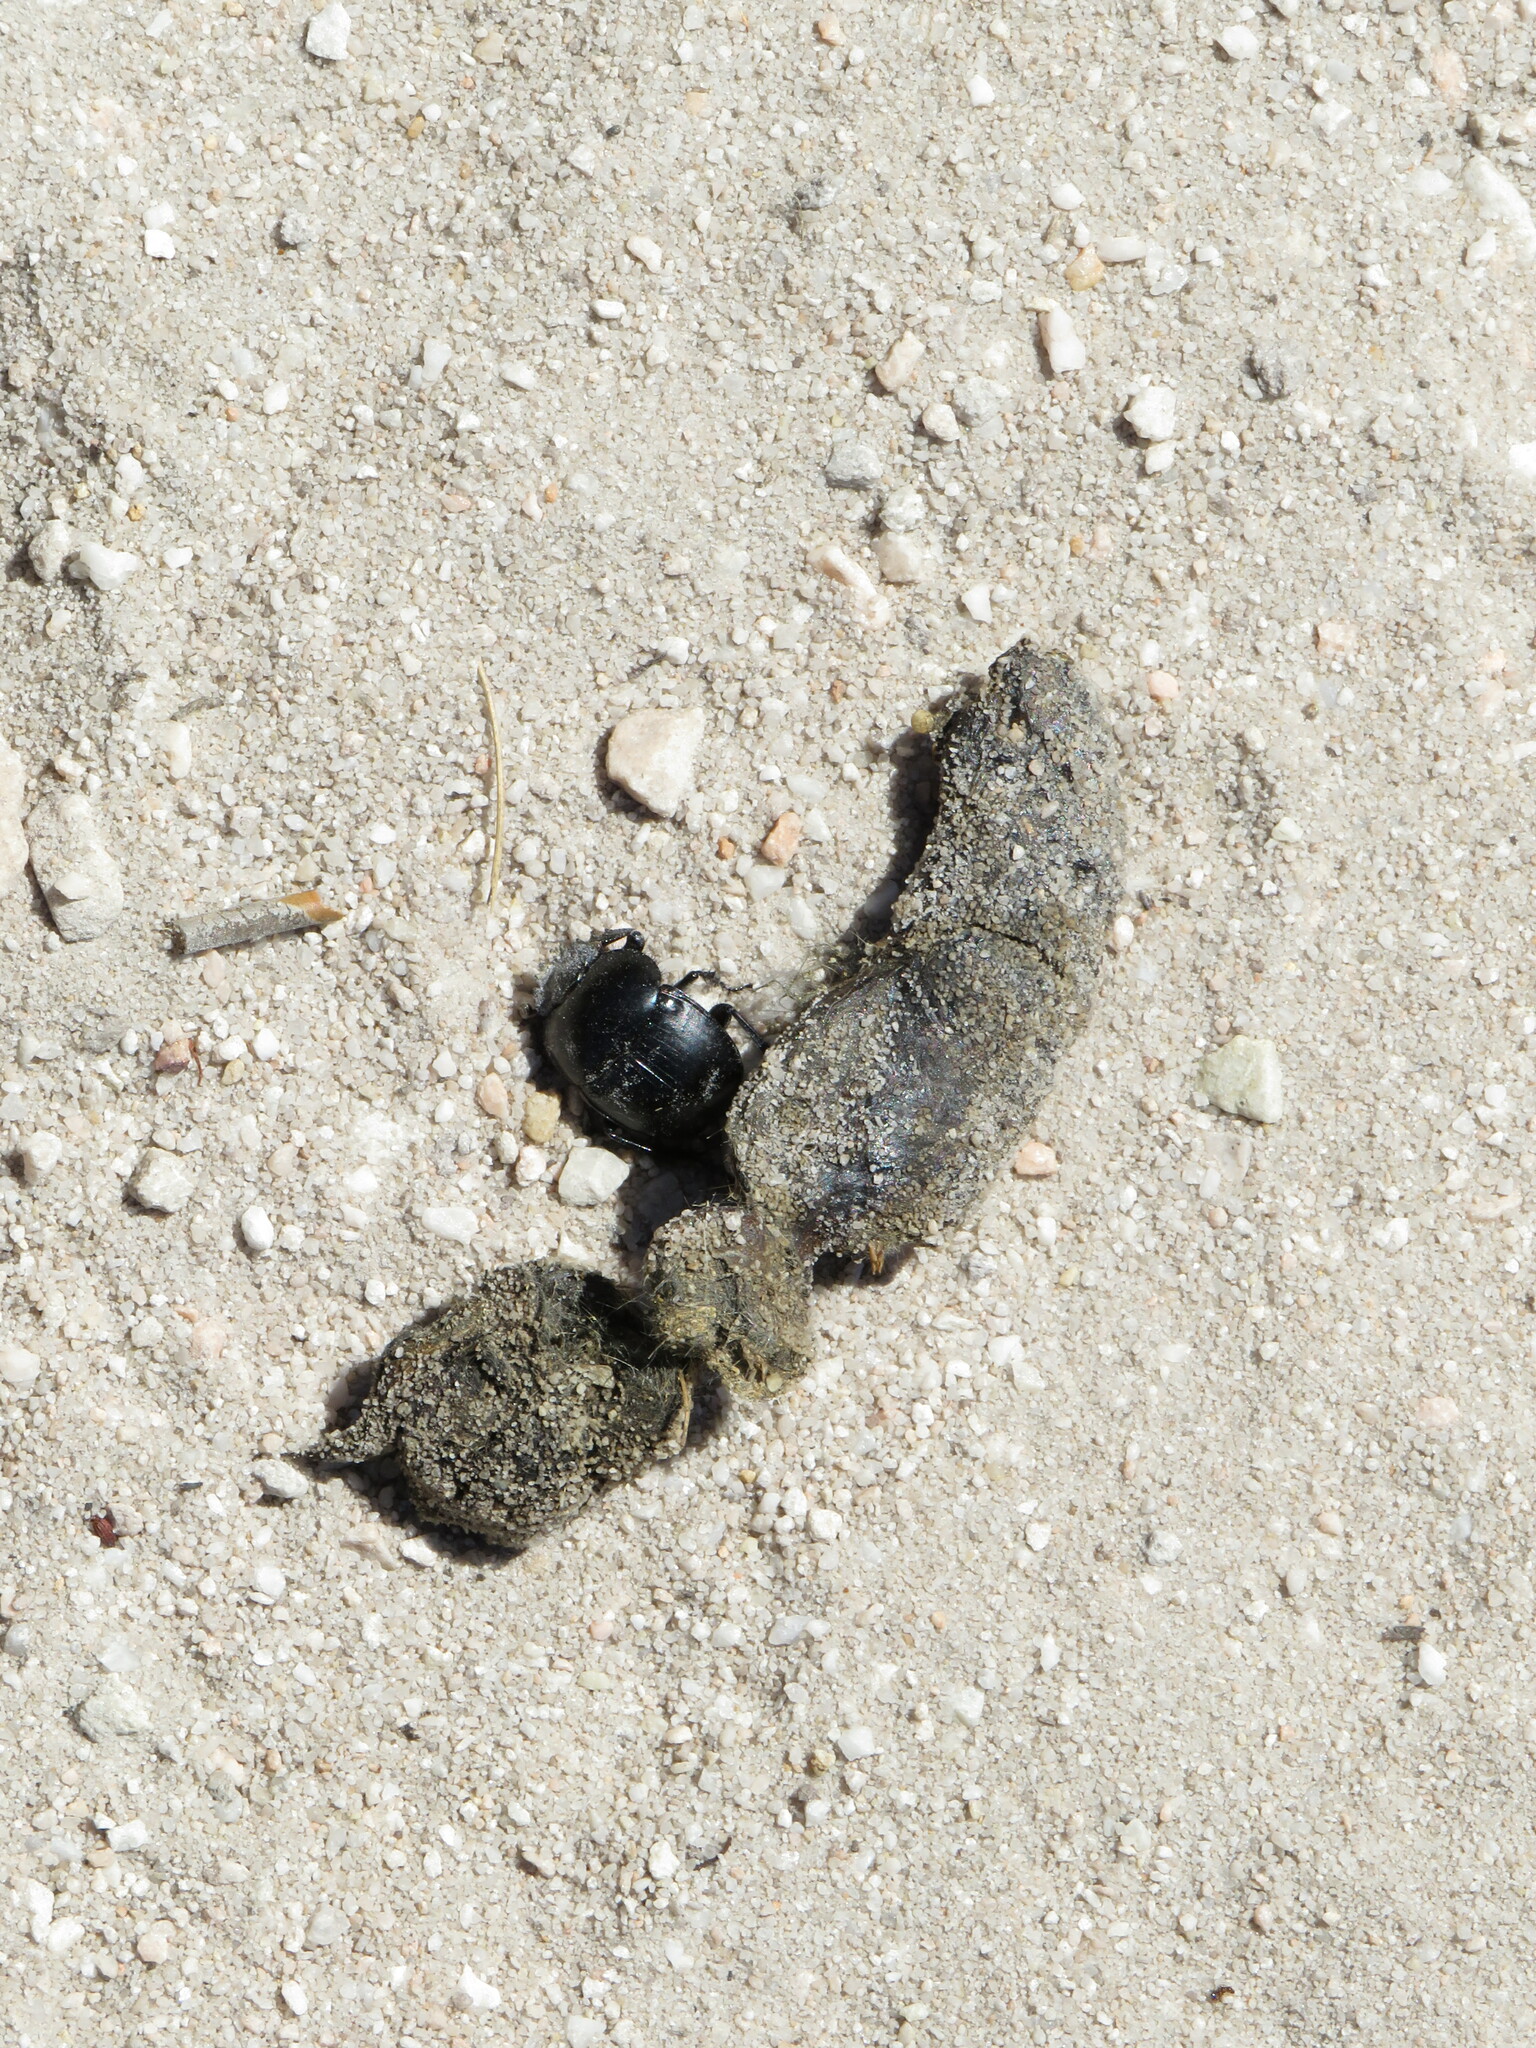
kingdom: Animalia
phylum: Arthropoda
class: Insecta
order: Coleoptera
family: Scarabaeidae
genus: Scarabaeus
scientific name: Scarabaeus convexus
